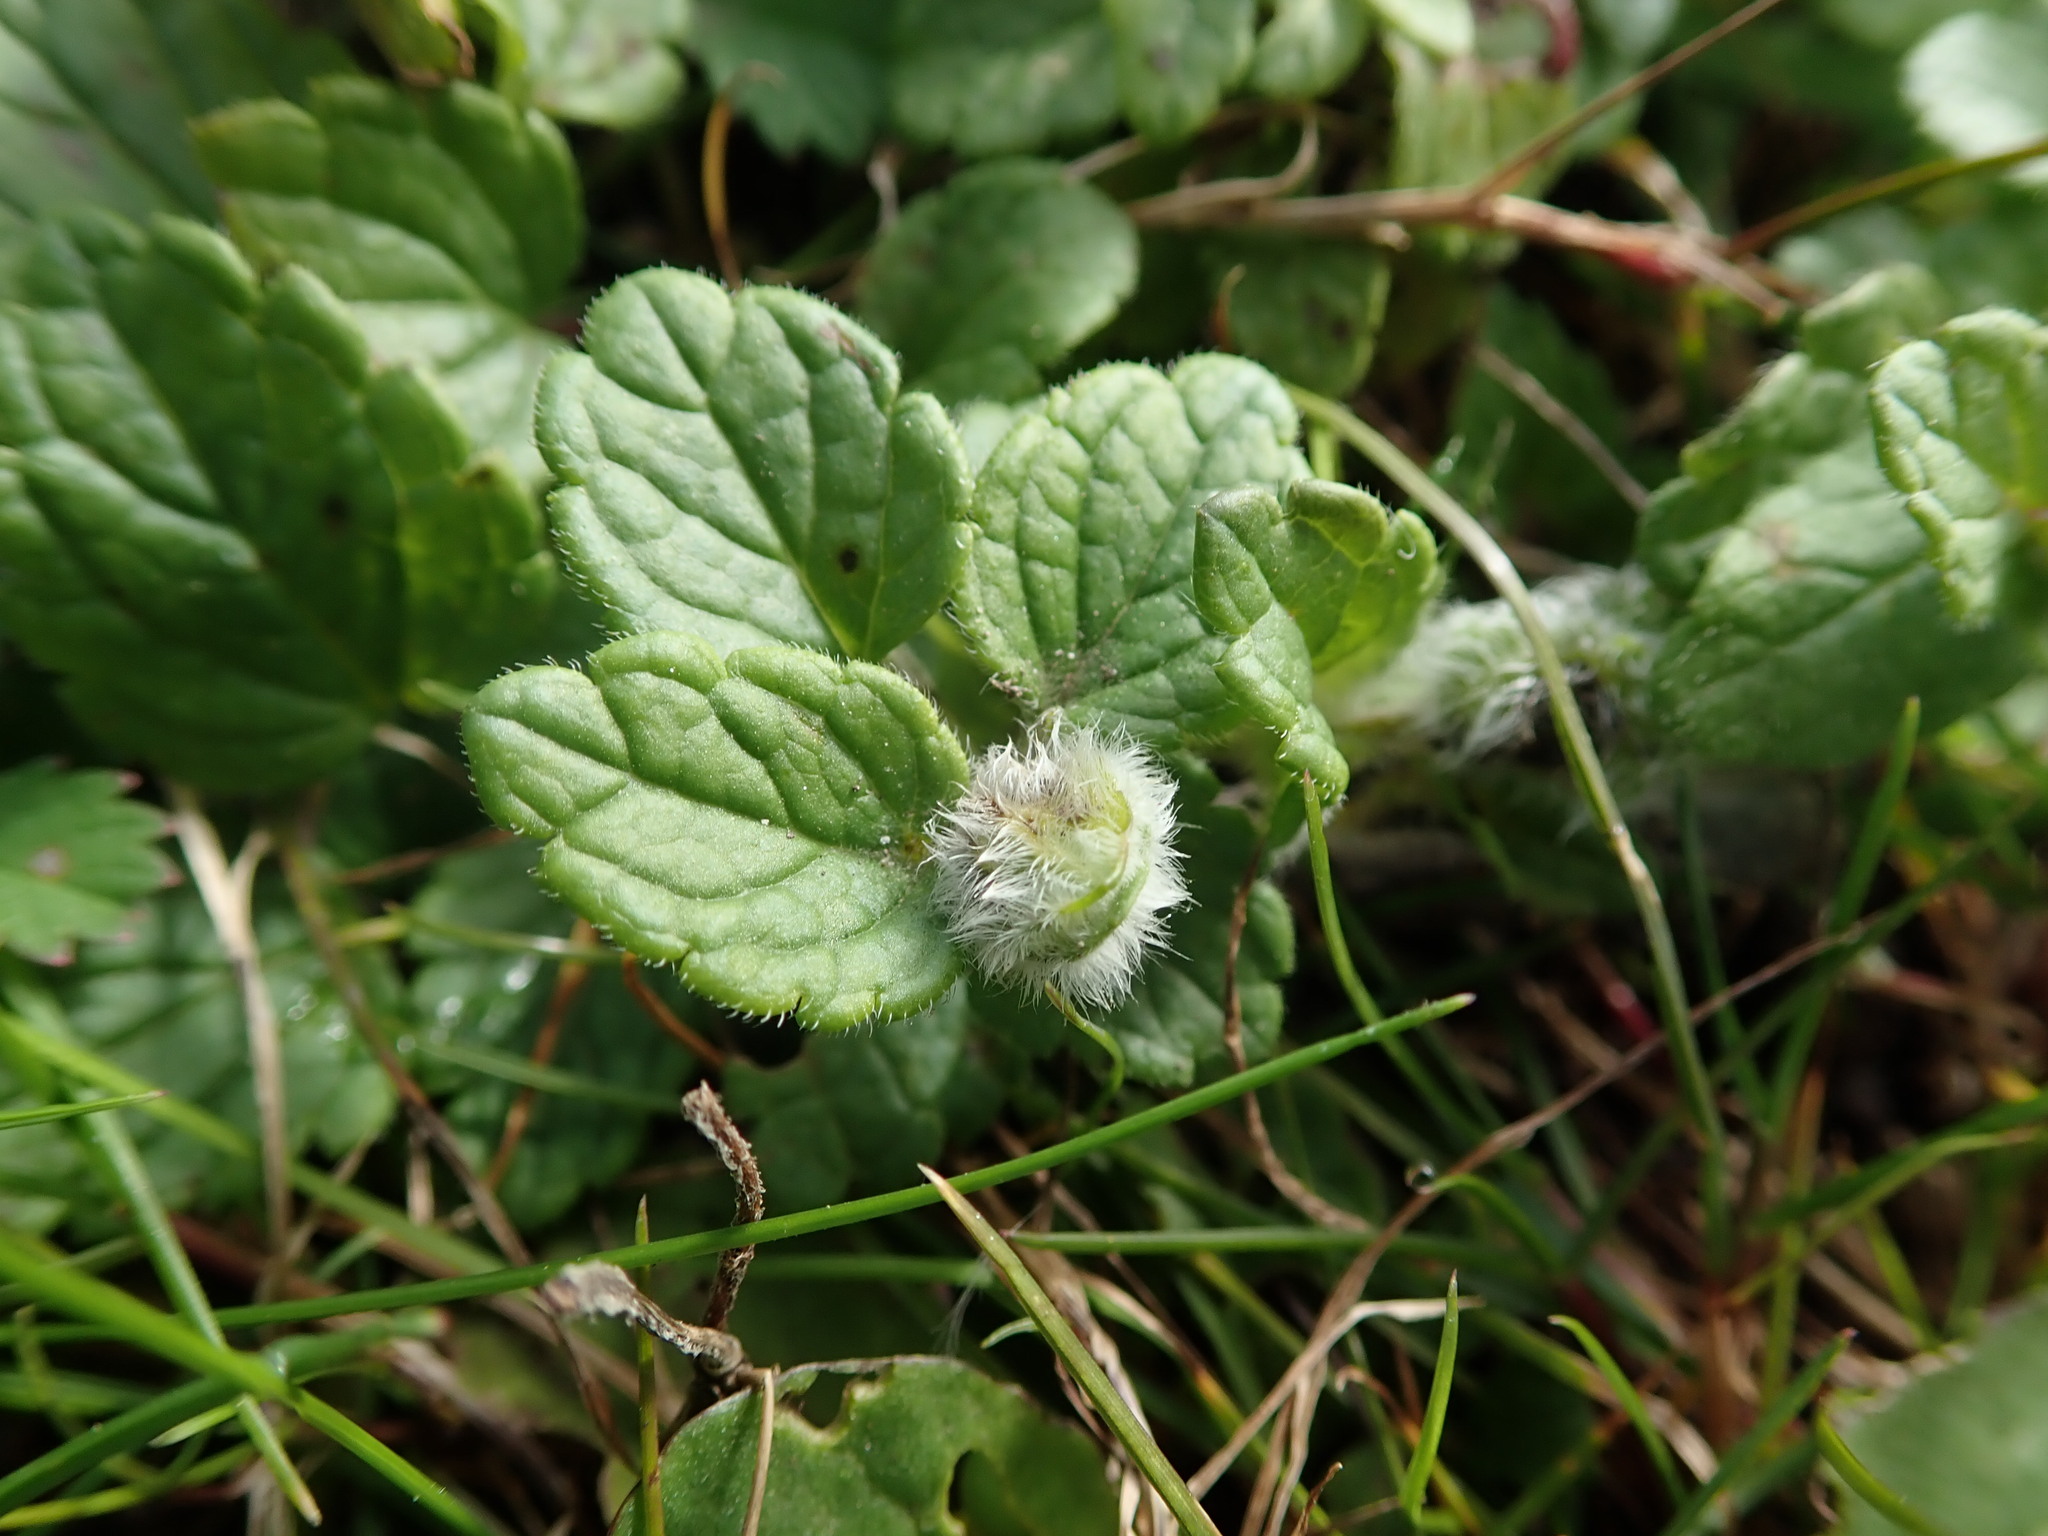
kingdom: Animalia
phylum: Arthropoda
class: Insecta
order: Diptera
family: Cecidomyiidae
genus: Jaapiella
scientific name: Jaapiella veronicae
